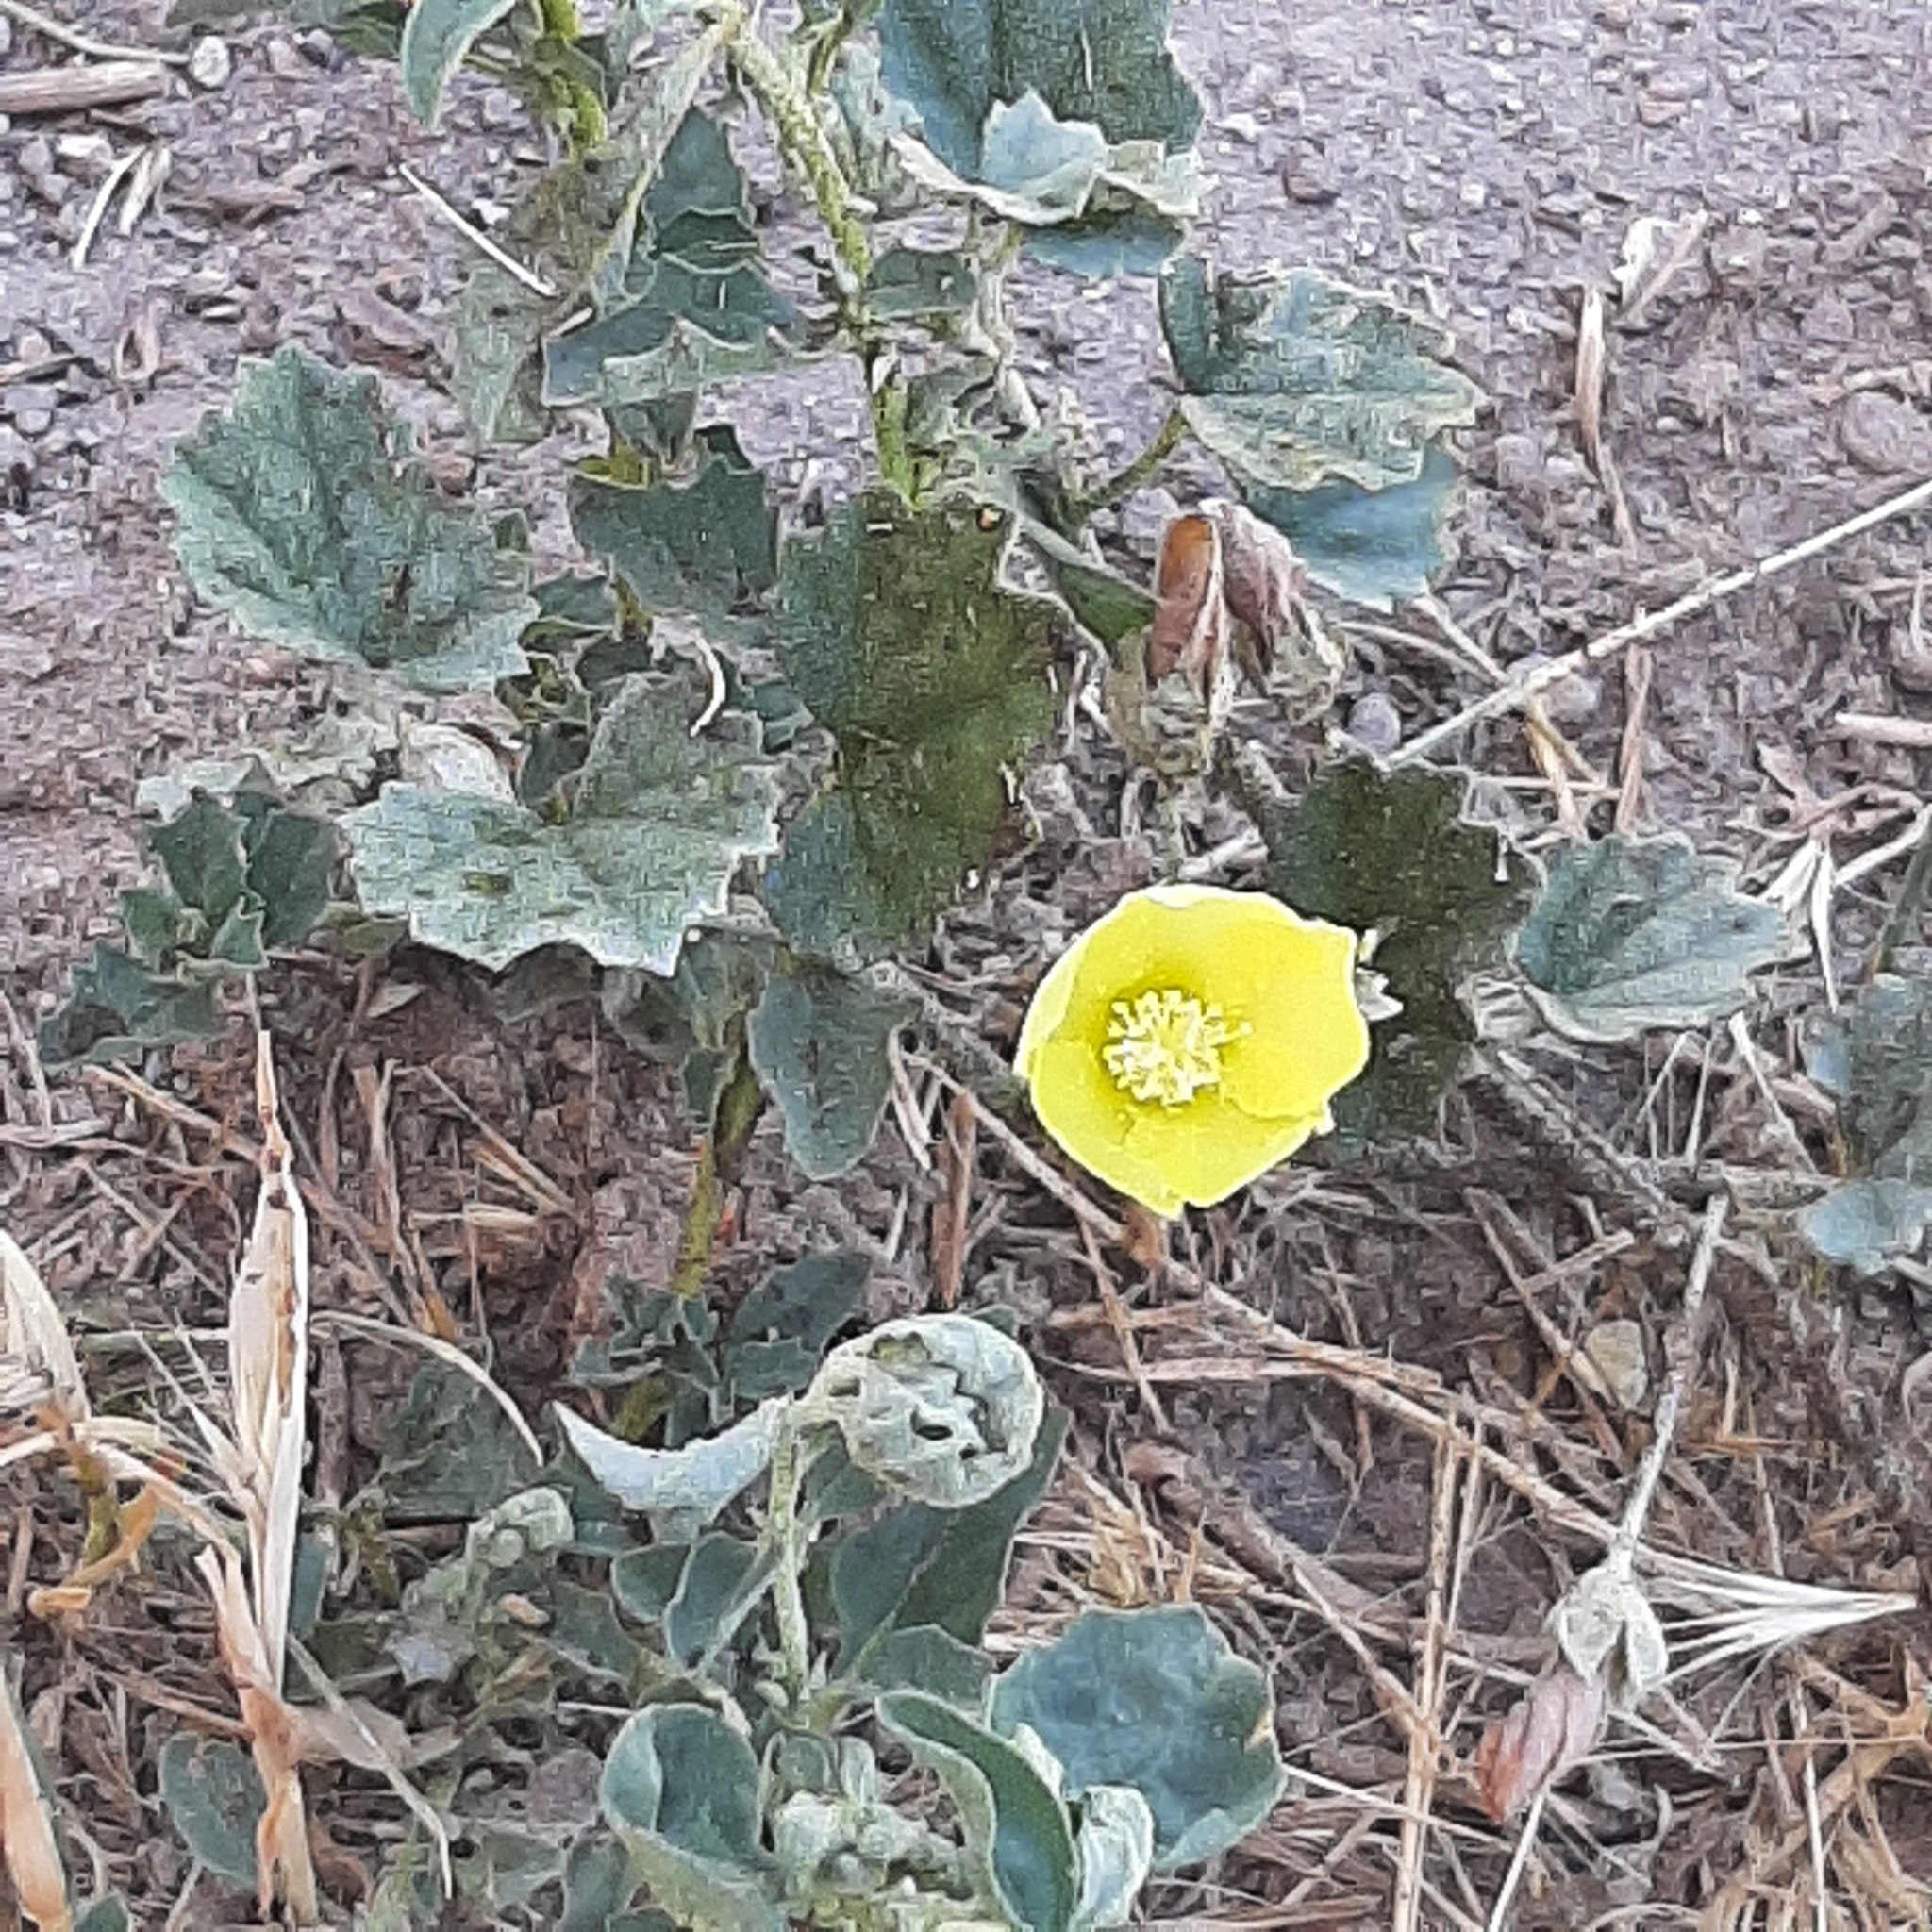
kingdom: Plantae
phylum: Tracheophyta
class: Magnoliopsida
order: Malvales
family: Malvaceae
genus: Malvella
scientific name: Malvella leprosa
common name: Alkali-mallow
